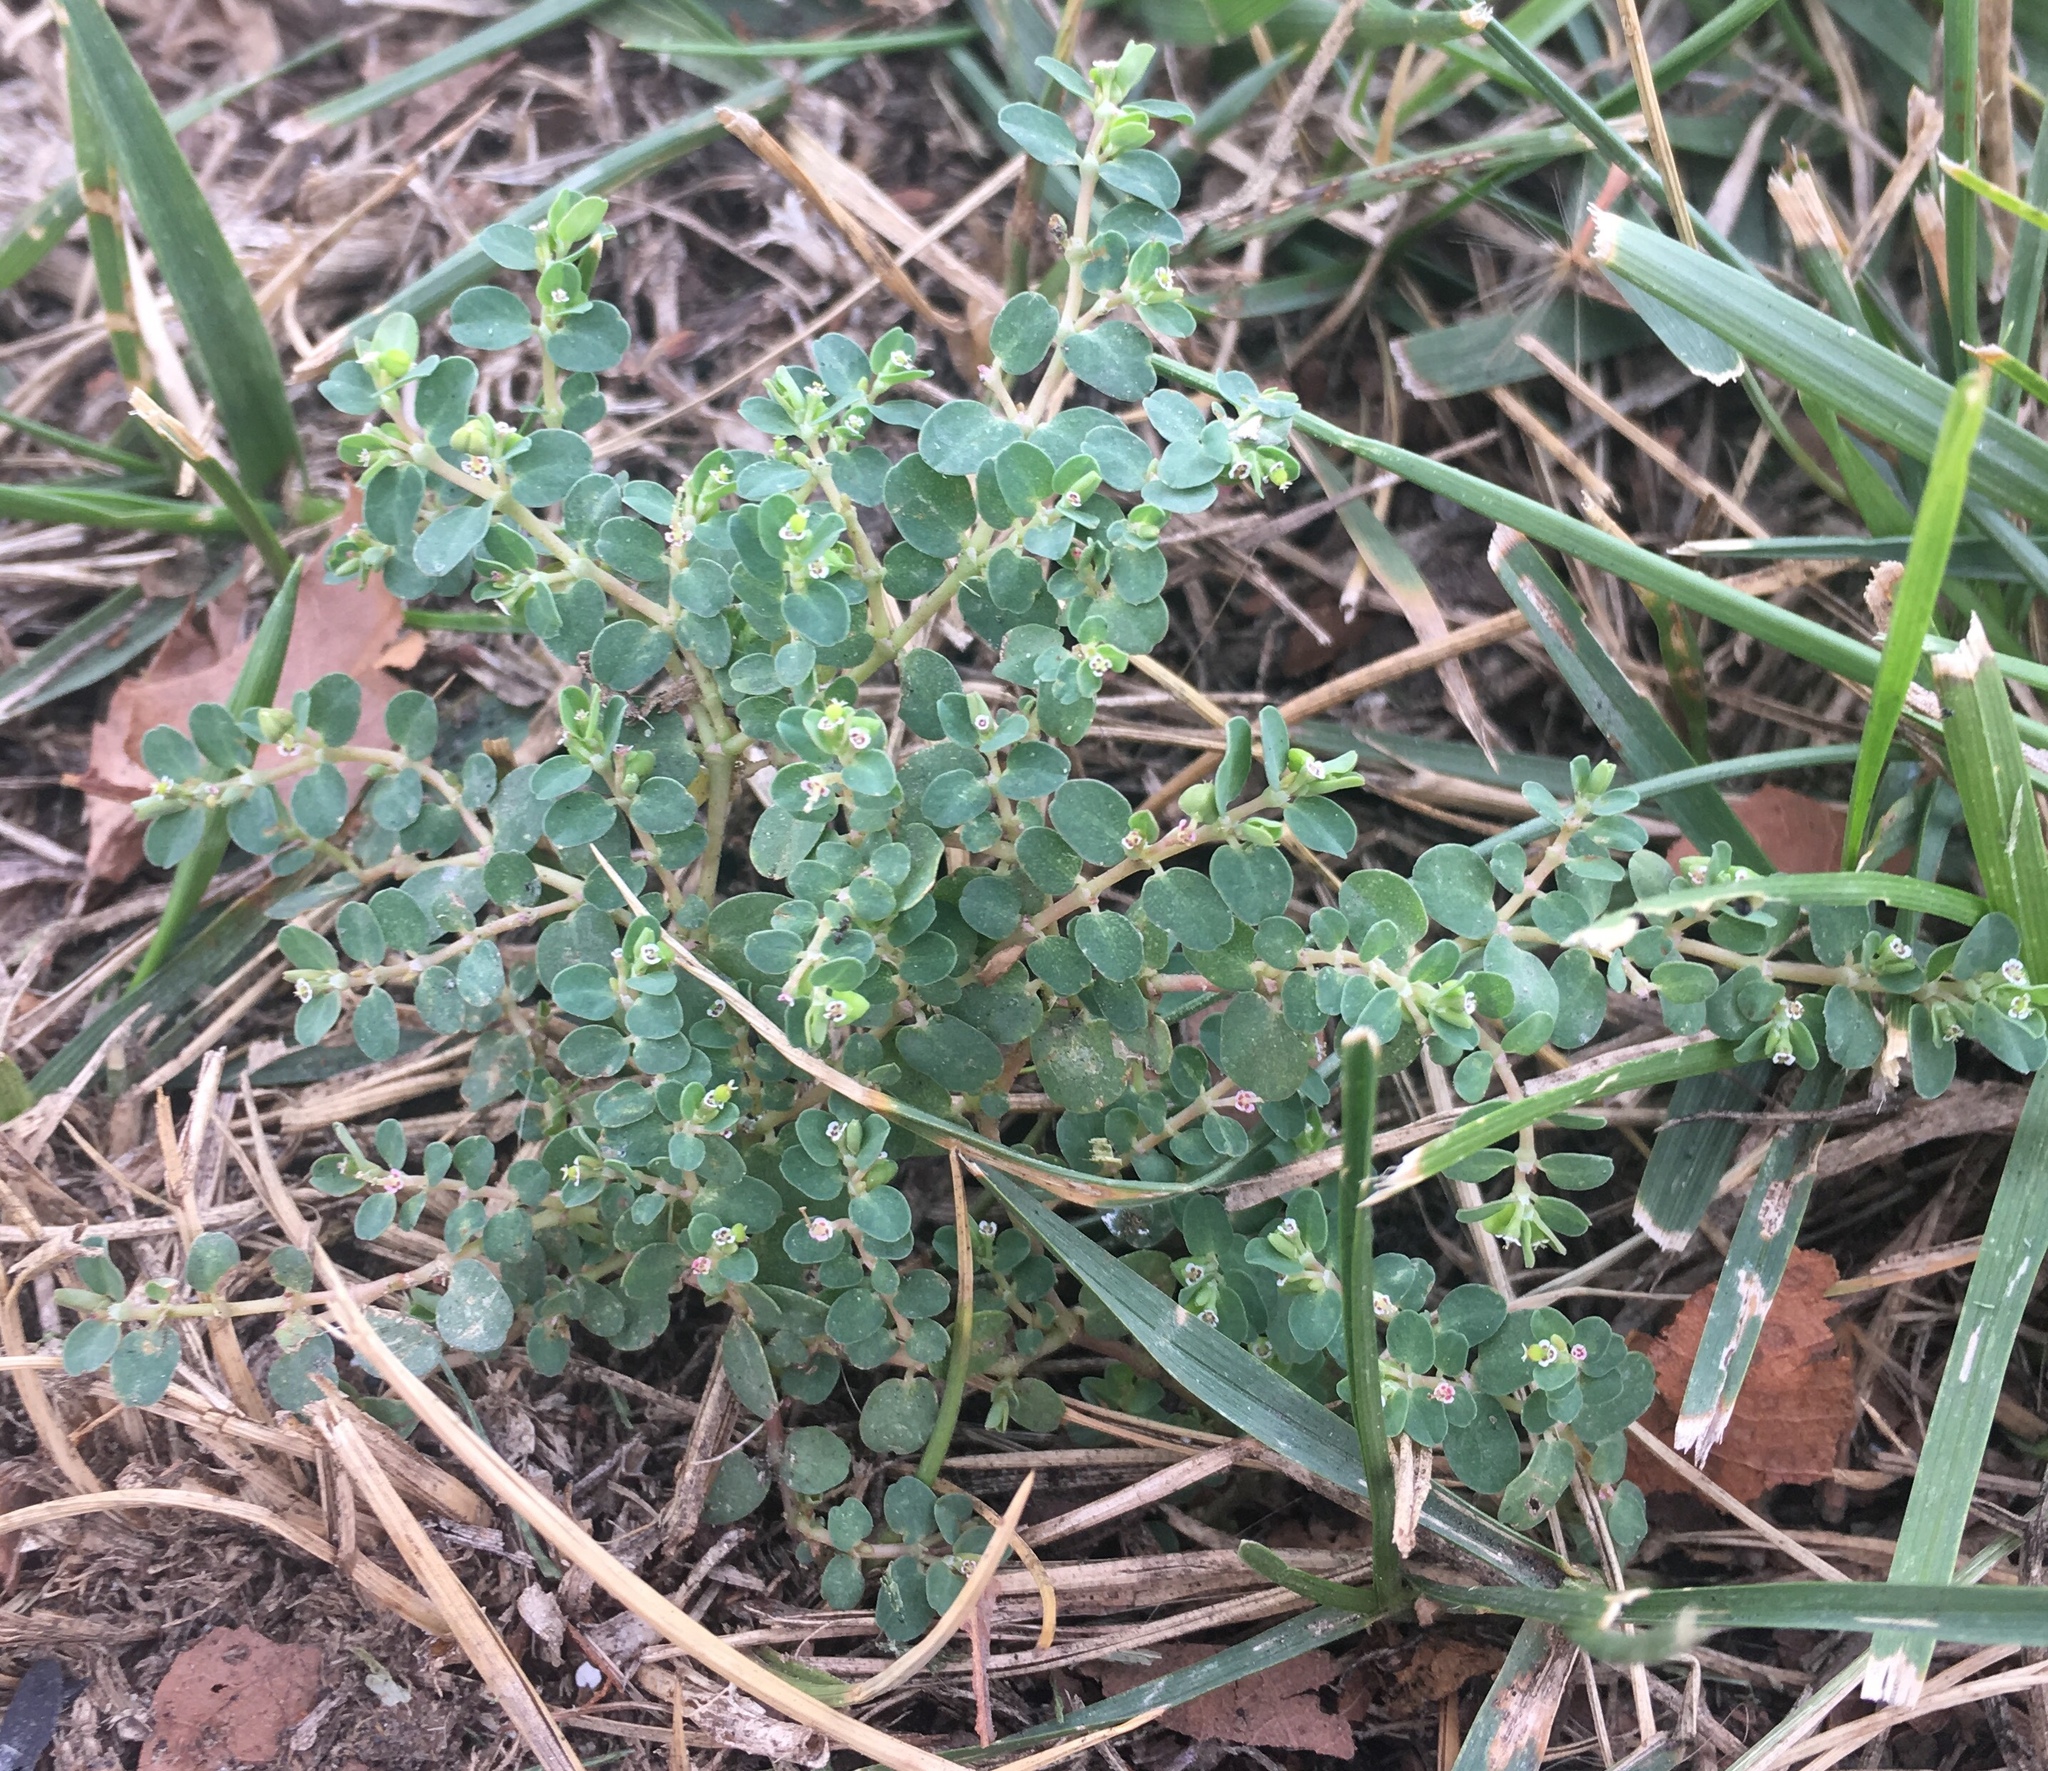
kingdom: Plantae
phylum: Tracheophyta
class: Magnoliopsida
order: Malpighiales
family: Euphorbiaceae
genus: Euphorbia
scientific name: Euphorbia serpens
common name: Matted sandmat
